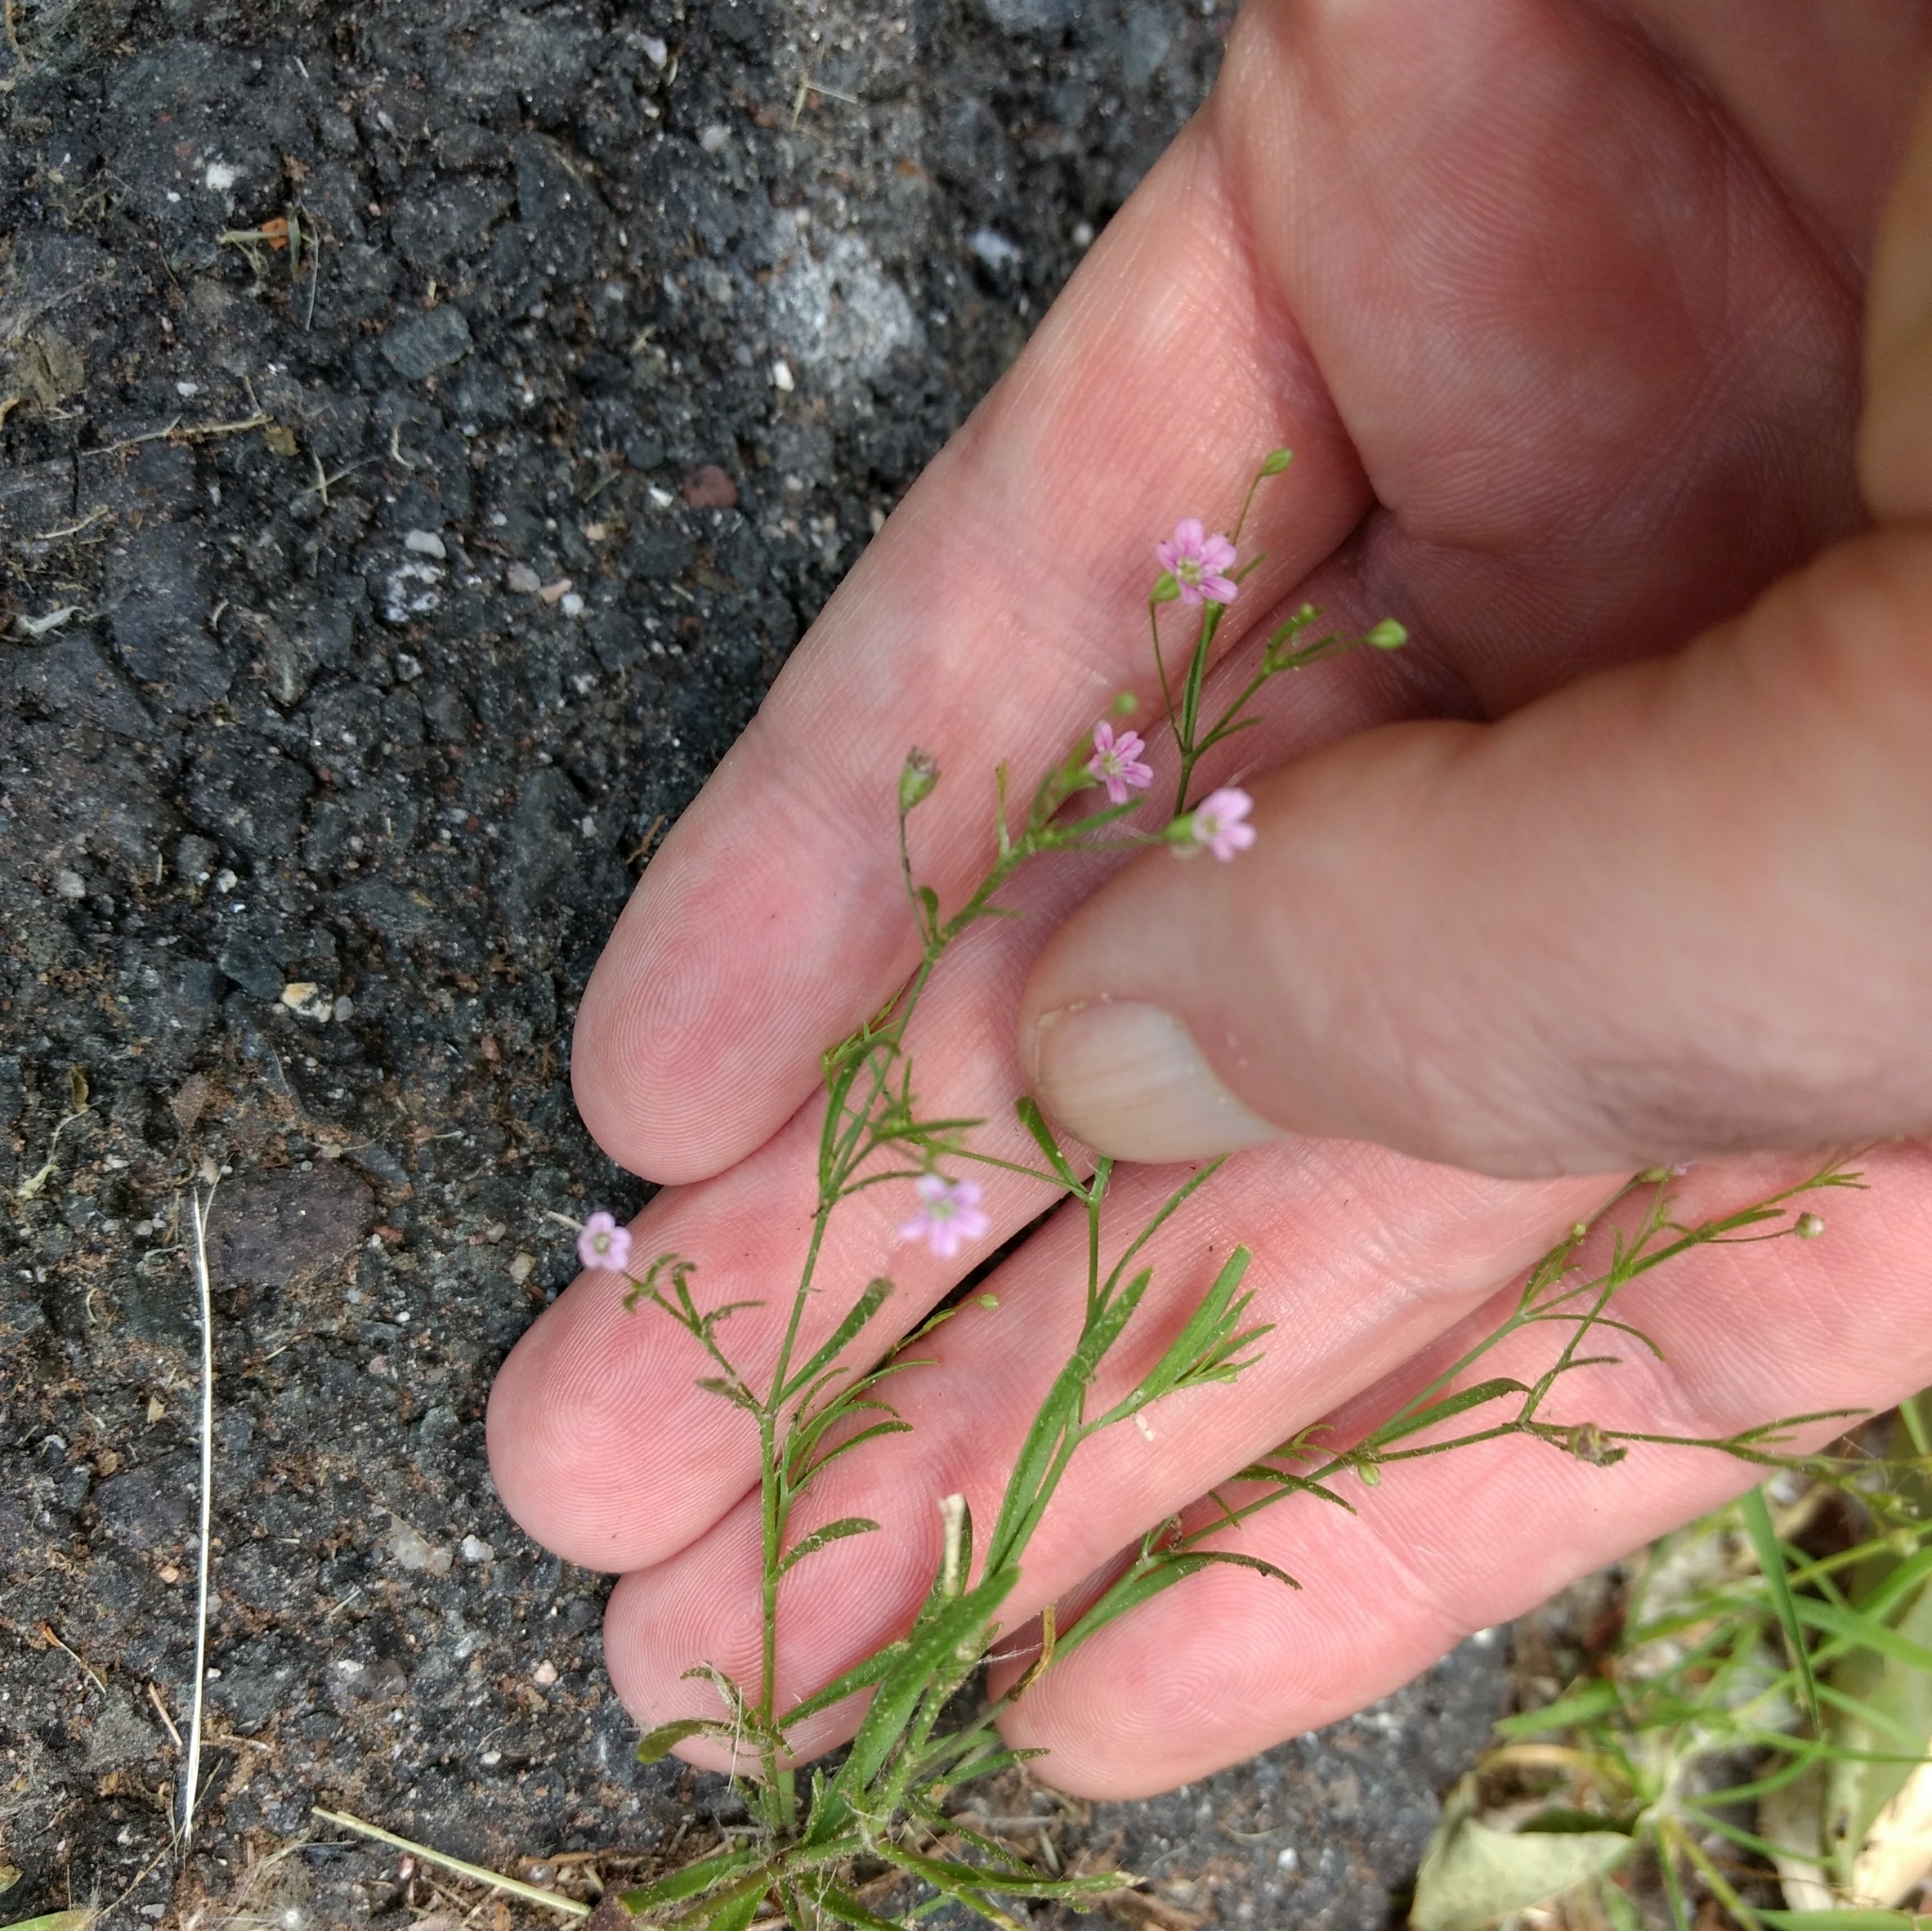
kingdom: Plantae
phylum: Tracheophyta
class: Magnoliopsida
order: Caryophyllales
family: Caryophyllaceae
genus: Psammophiliella
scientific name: Psammophiliella muralis
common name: Cushion baby's-breath
